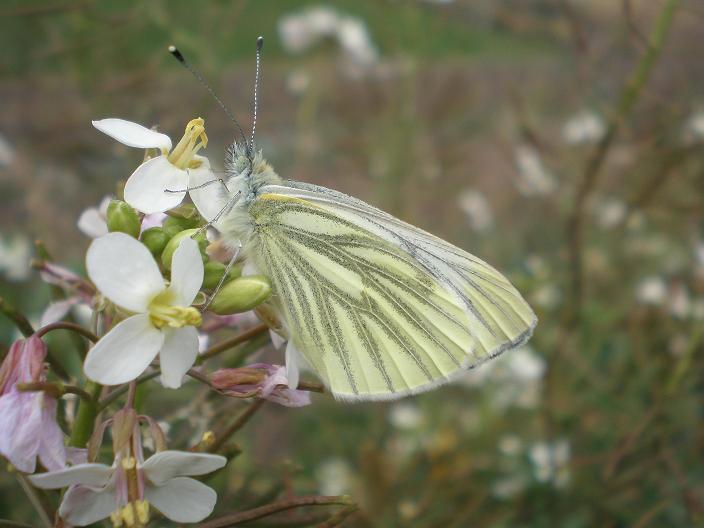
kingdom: Animalia
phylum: Arthropoda
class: Insecta
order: Lepidoptera
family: Pieridae
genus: Pieris
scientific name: Pieris napi
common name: Green-veined white
